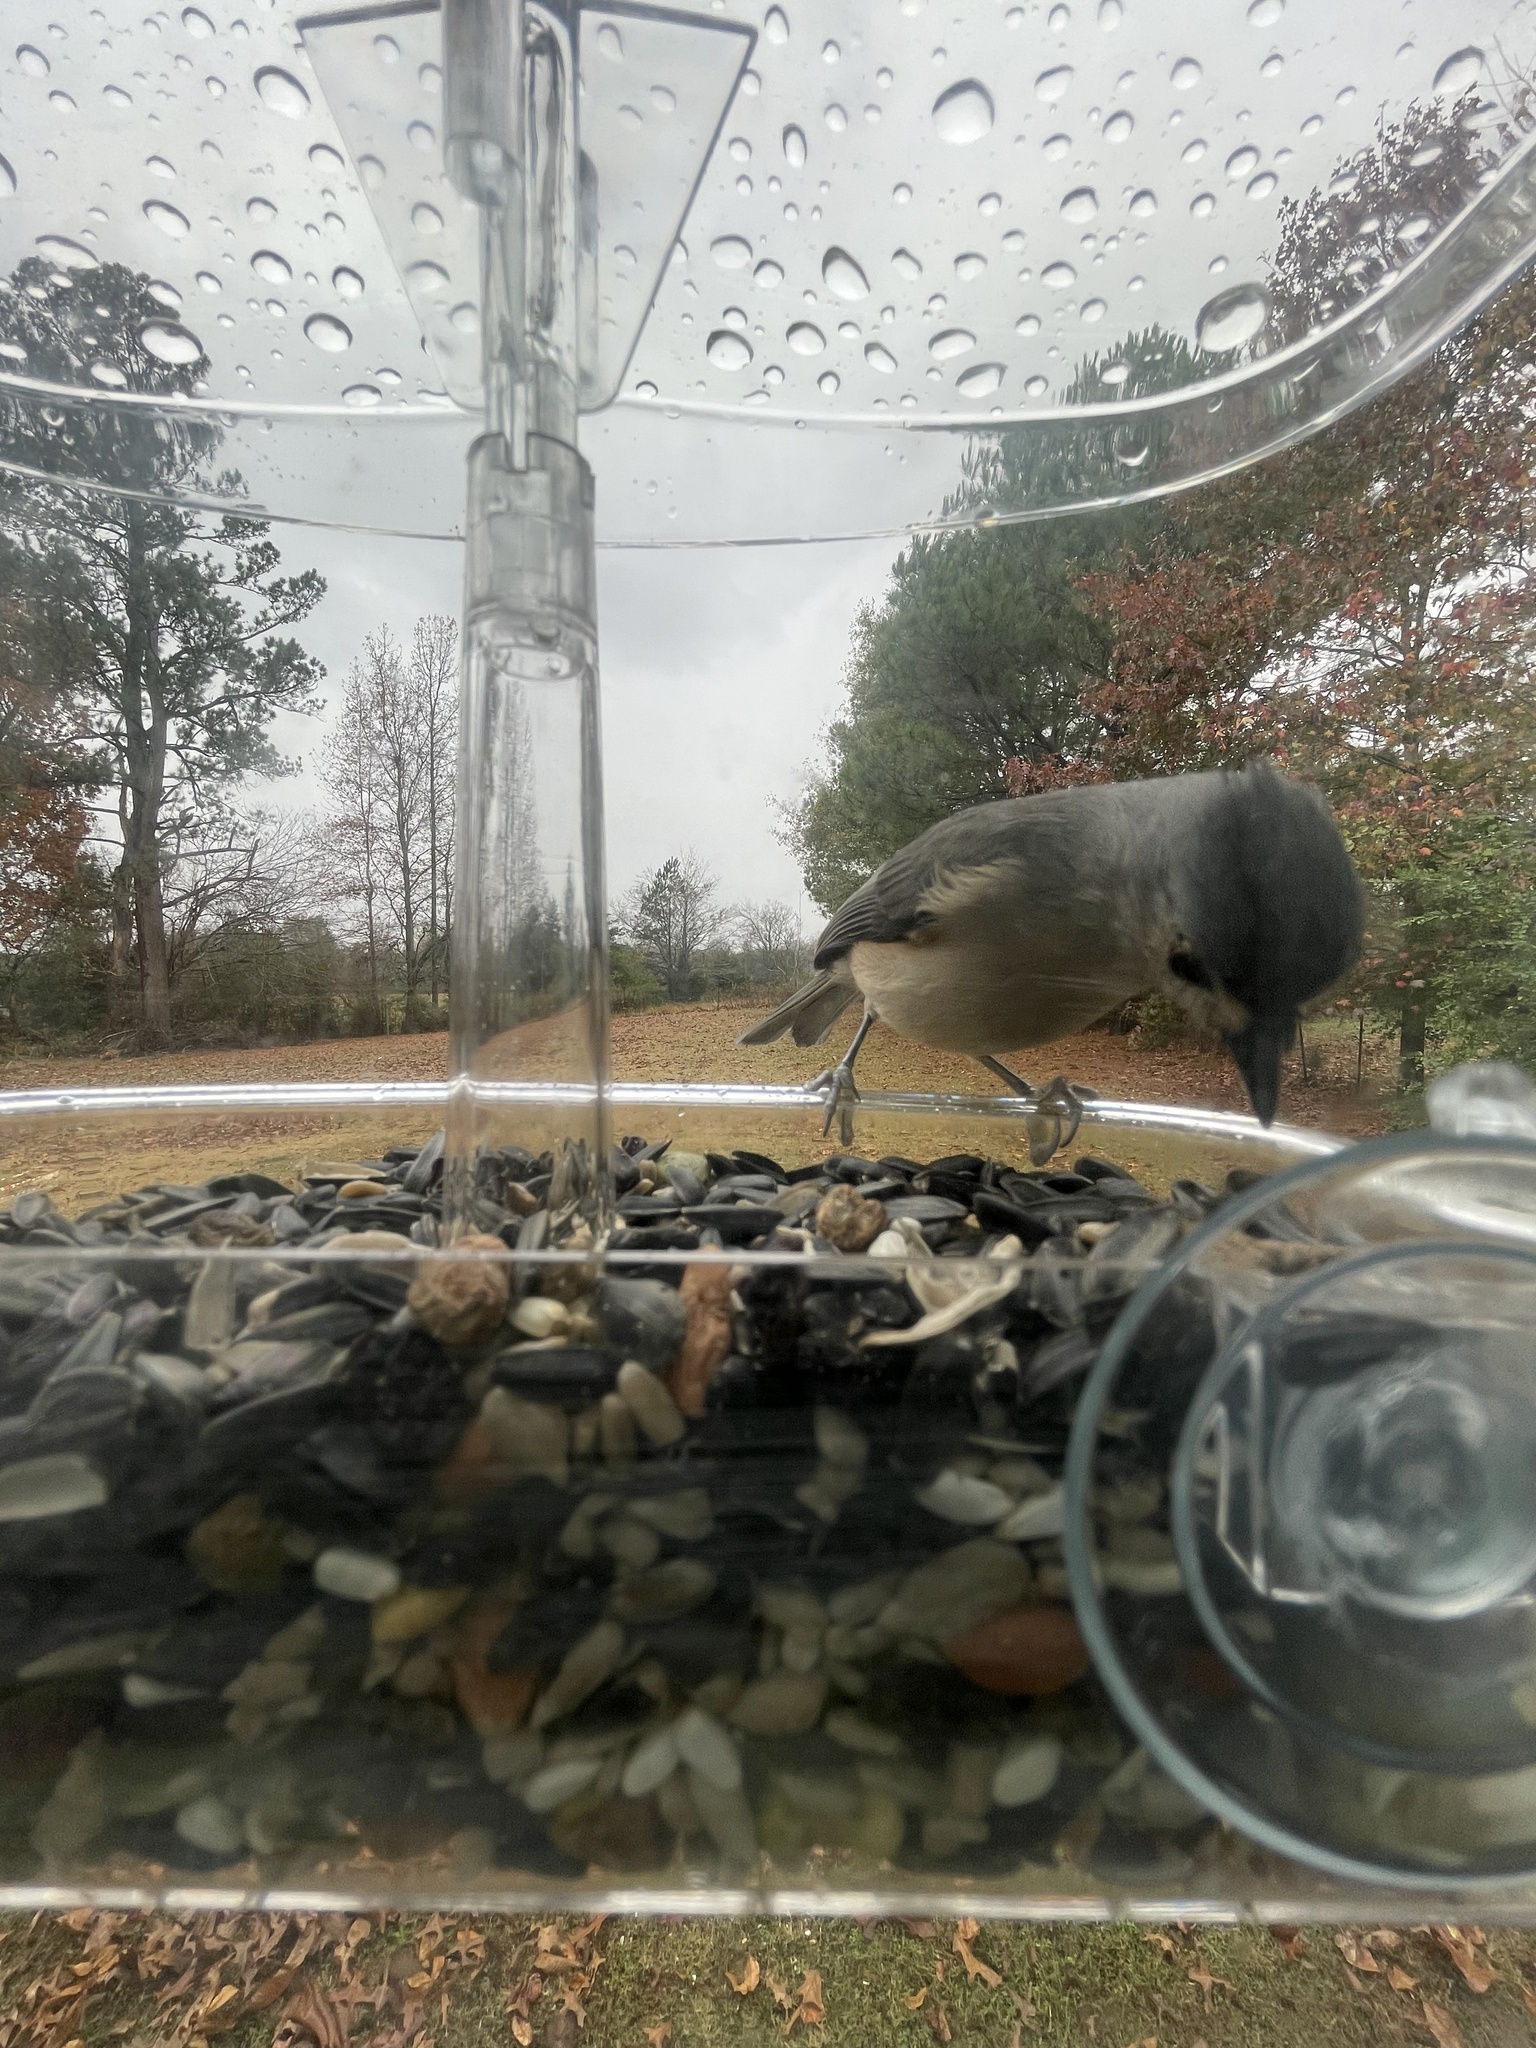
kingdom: Animalia
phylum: Chordata
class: Aves
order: Passeriformes
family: Paridae
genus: Baeolophus
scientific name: Baeolophus bicolor
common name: Tufted titmouse
